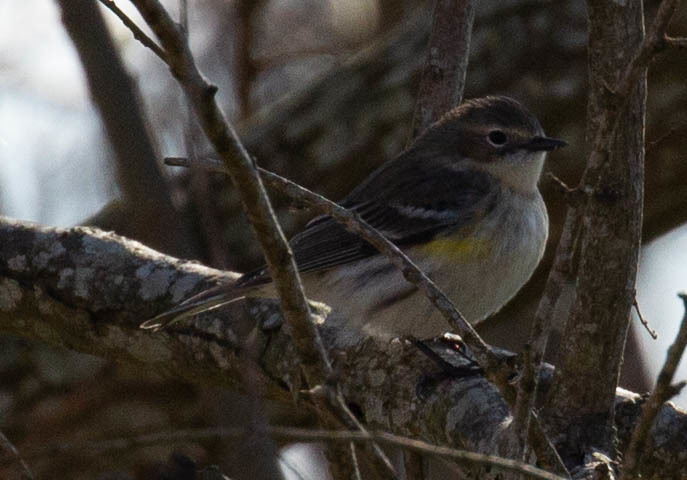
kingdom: Animalia
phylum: Chordata
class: Aves
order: Passeriformes
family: Parulidae
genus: Setophaga
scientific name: Setophaga coronata
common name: Myrtle warbler
